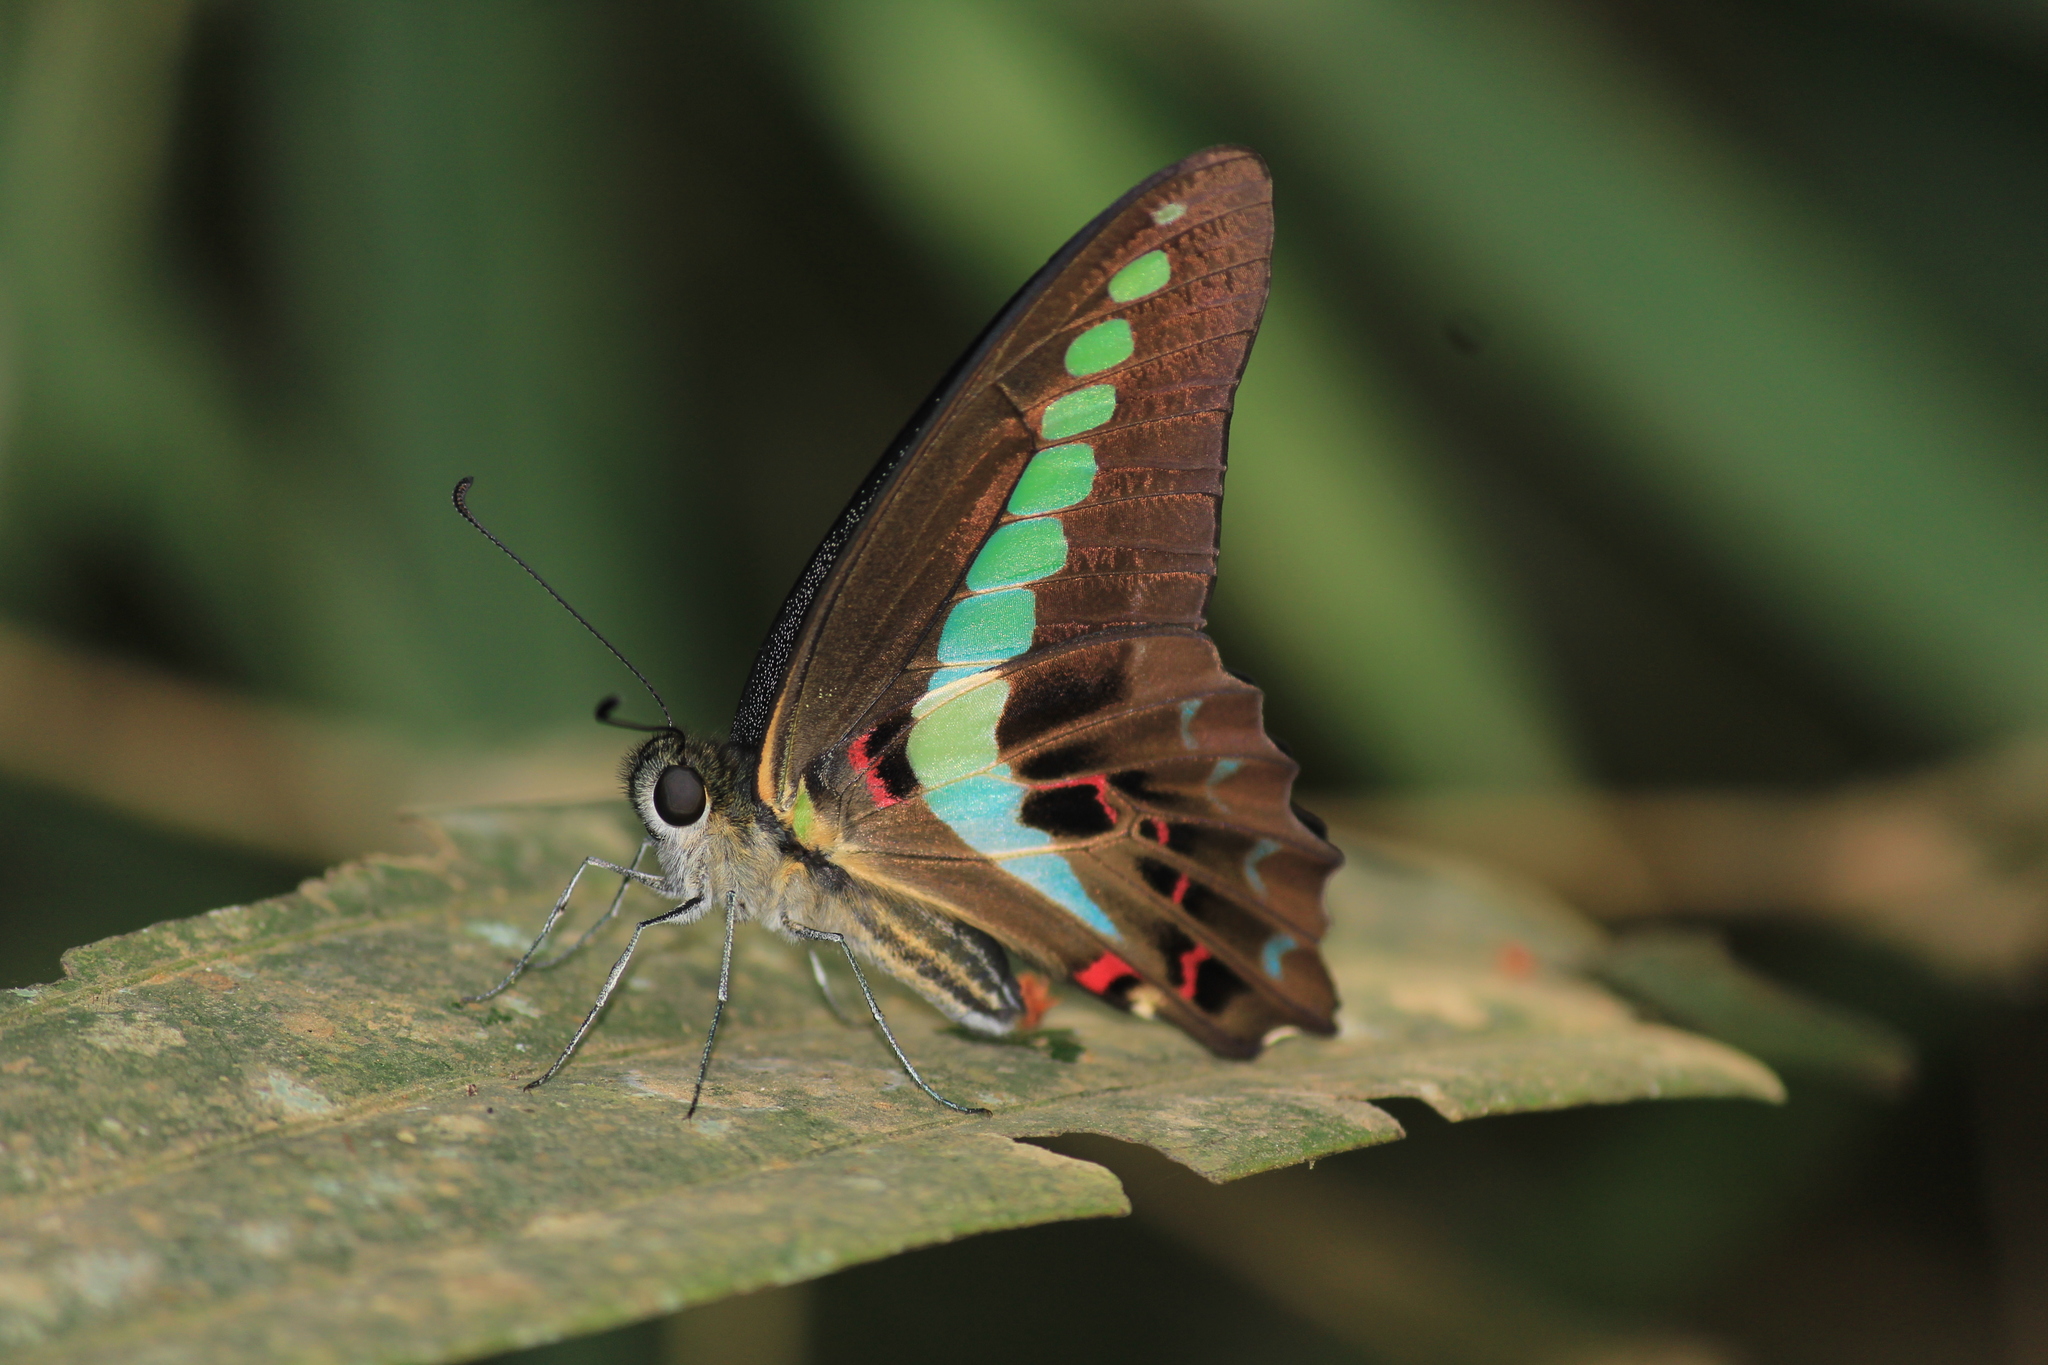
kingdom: Animalia
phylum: Arthropoda
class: Insecta
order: Lepidoptera
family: Papilionidae
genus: Graphium
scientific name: Graphium
